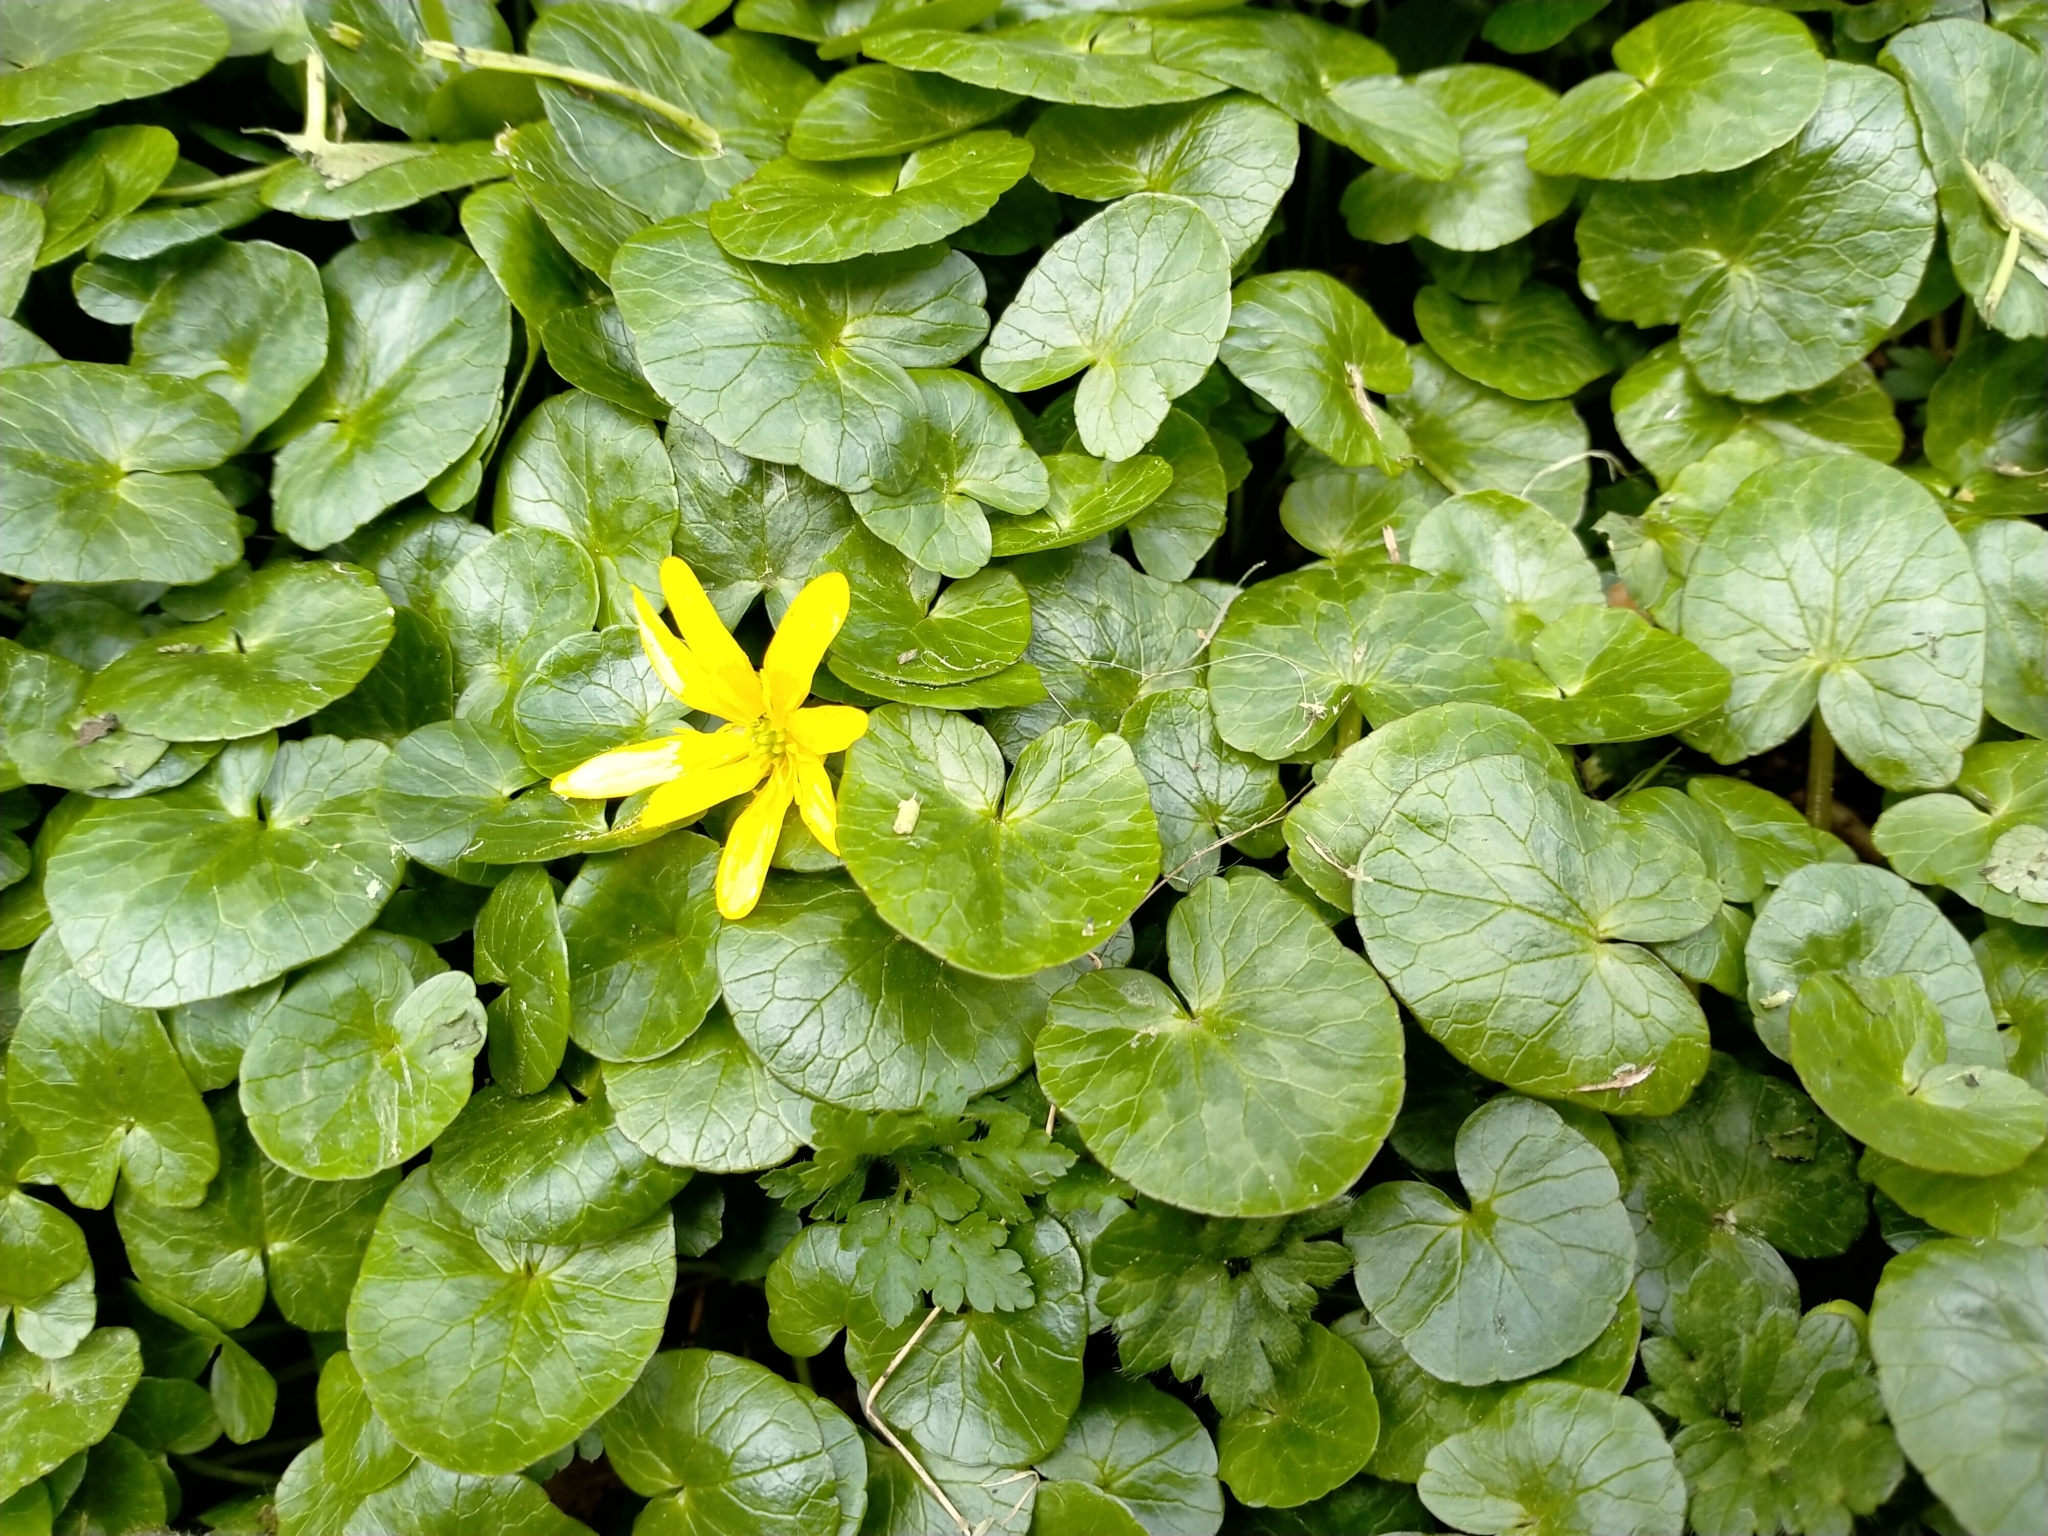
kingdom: Plantae
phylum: Tracheophyta
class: Magnoliopsida
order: Ranunculales
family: Ranunculaceae
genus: Ficaria
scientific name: Ficaria verna
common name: Lesser celandine
